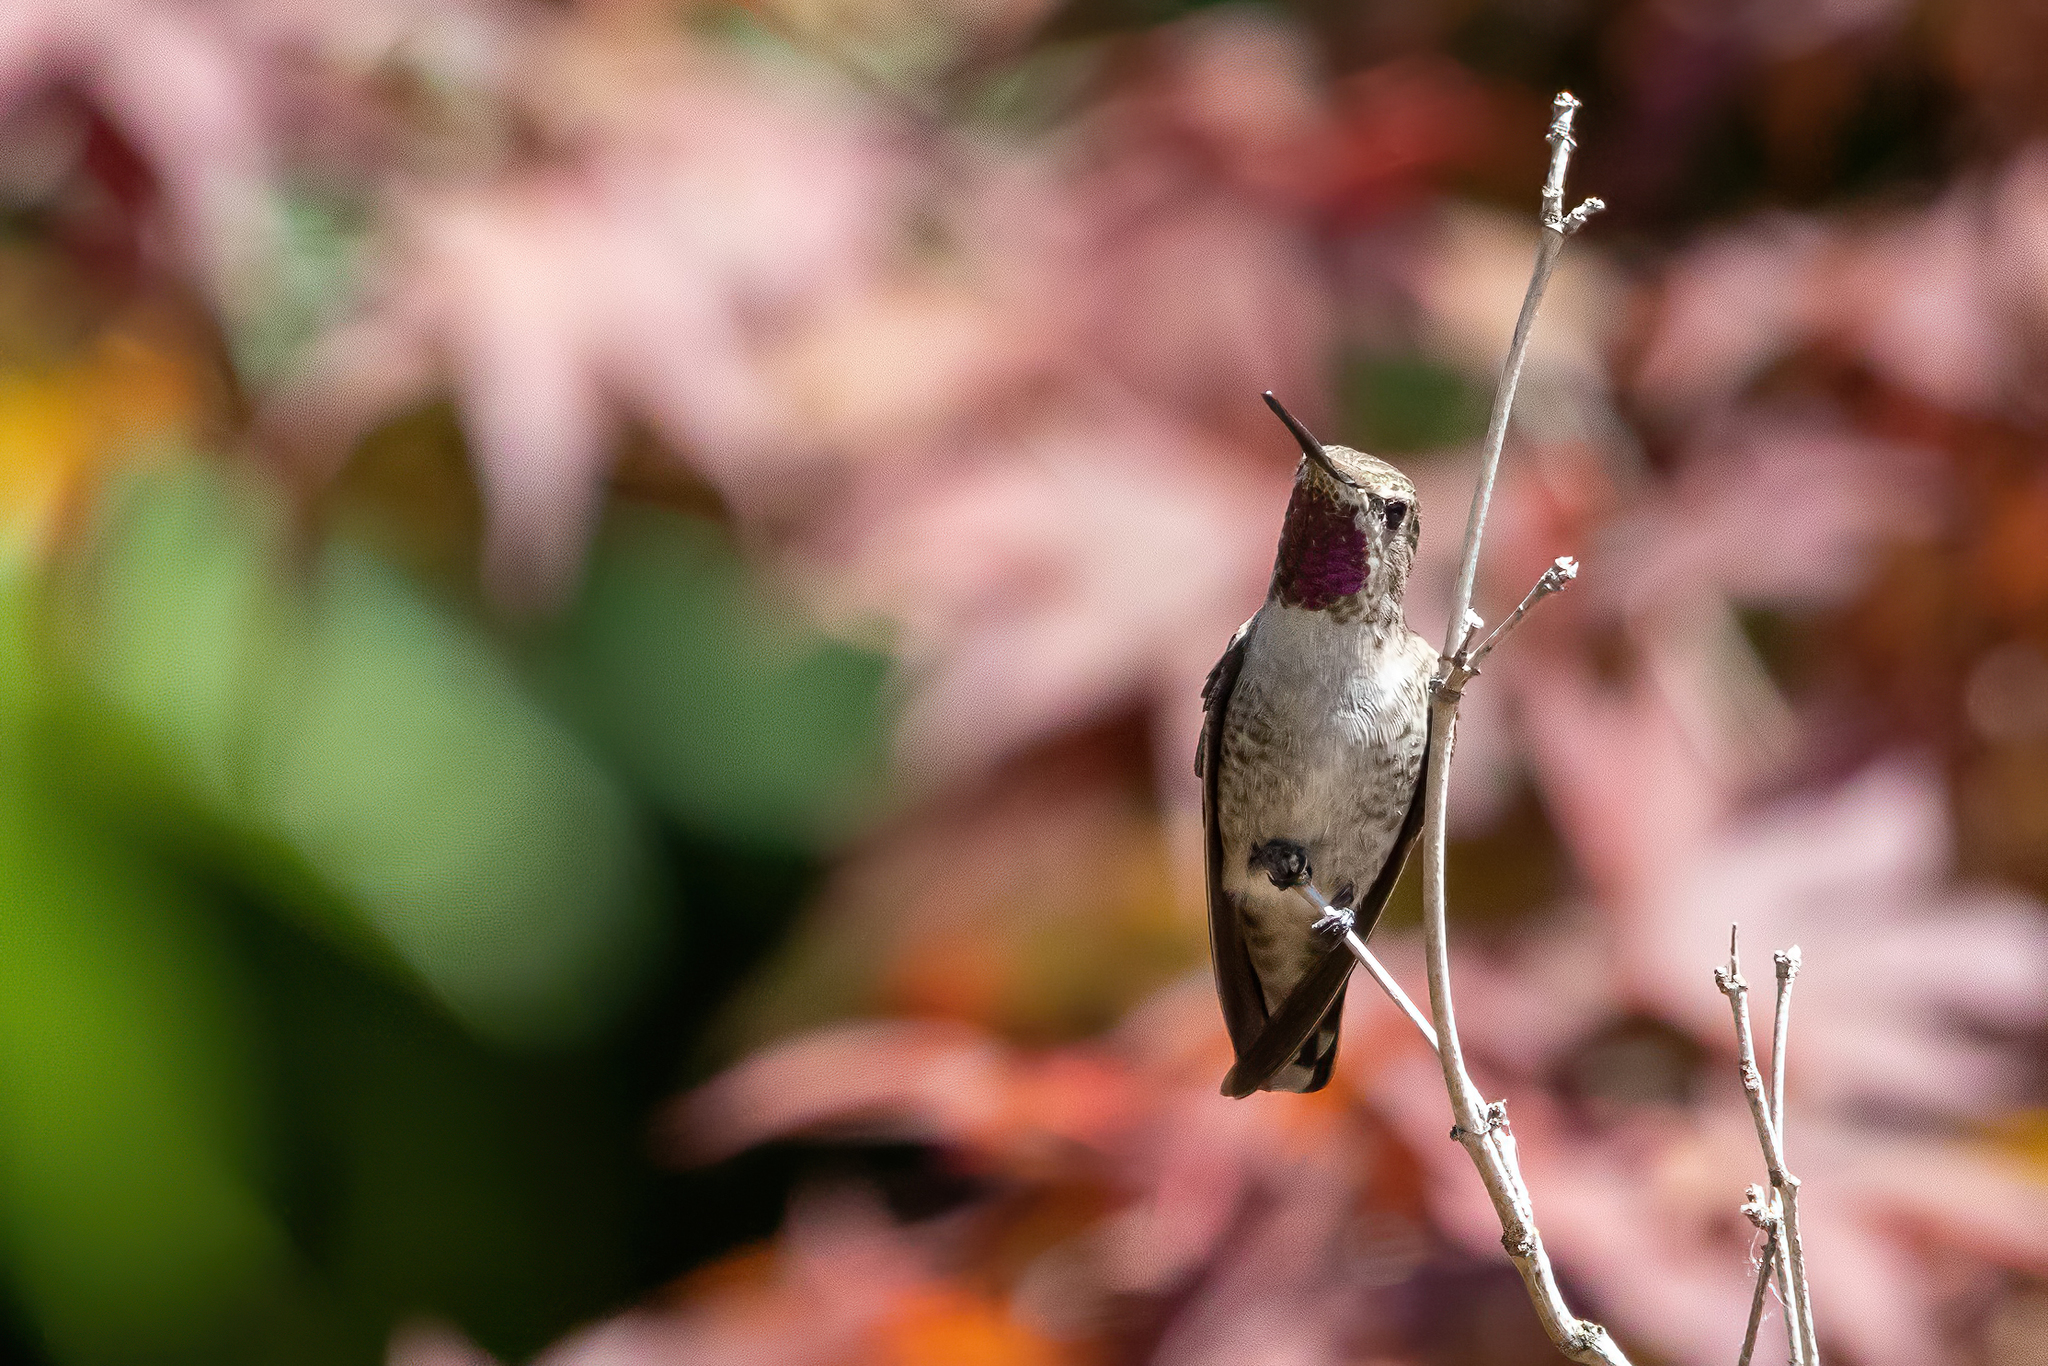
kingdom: Animalia
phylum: Chordata
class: Aves
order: Apodiformes
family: Trochilidae
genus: Calypte
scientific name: Calypte anna
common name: Anna's hummingbird
